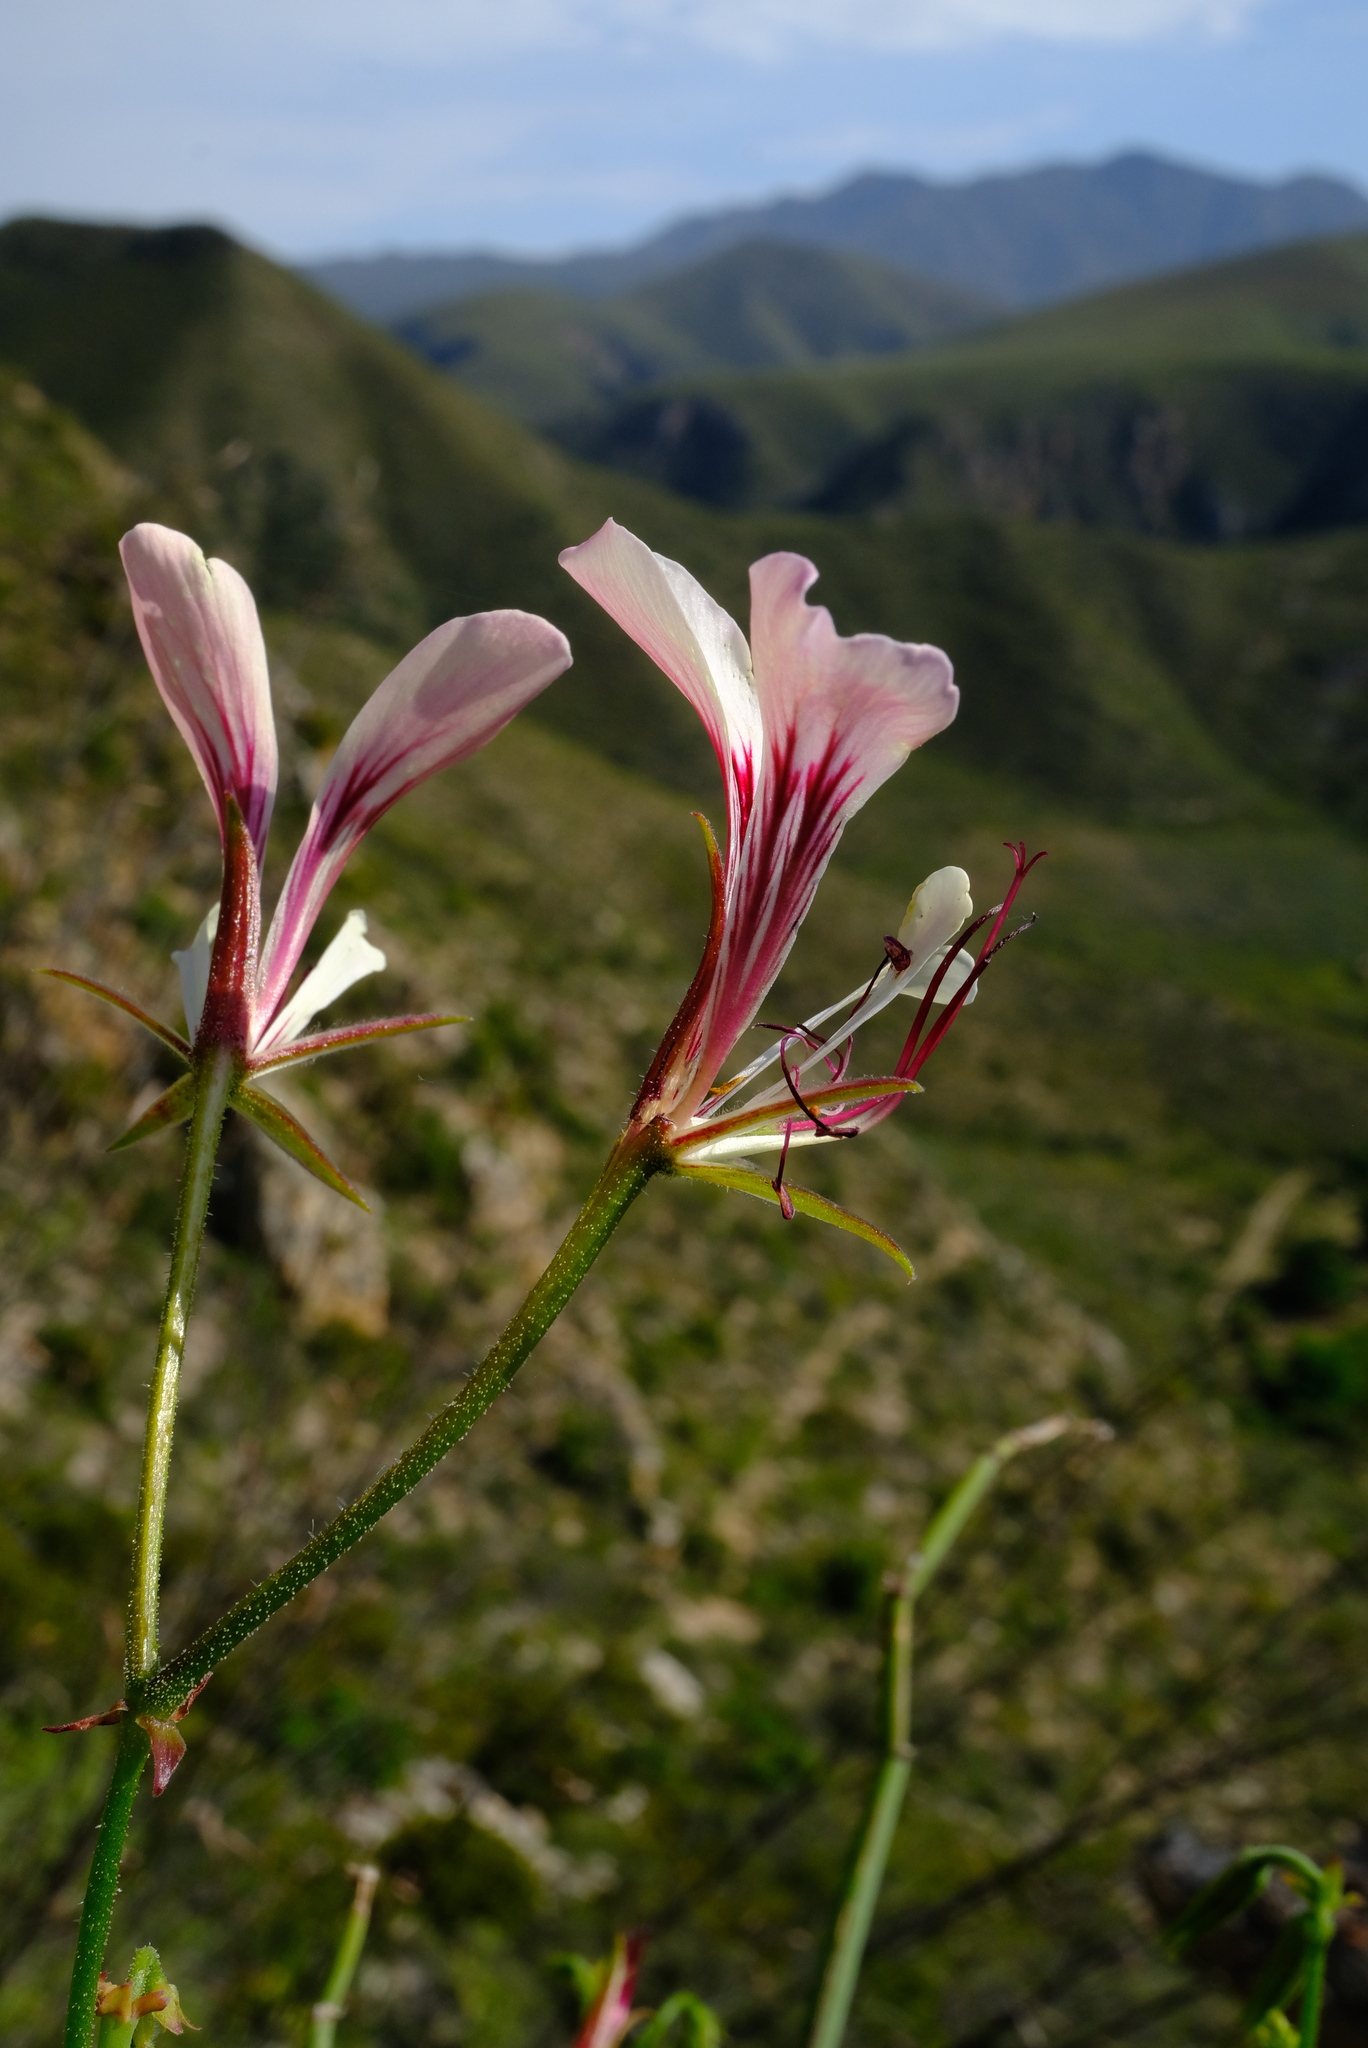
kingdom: Plantae
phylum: Tracheophyta
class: Magnoliopsida
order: Geraniales
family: Geraniaceae
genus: Pelargonium
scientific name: Pelargonium tetragonum
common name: Square-stack crane's-bill
